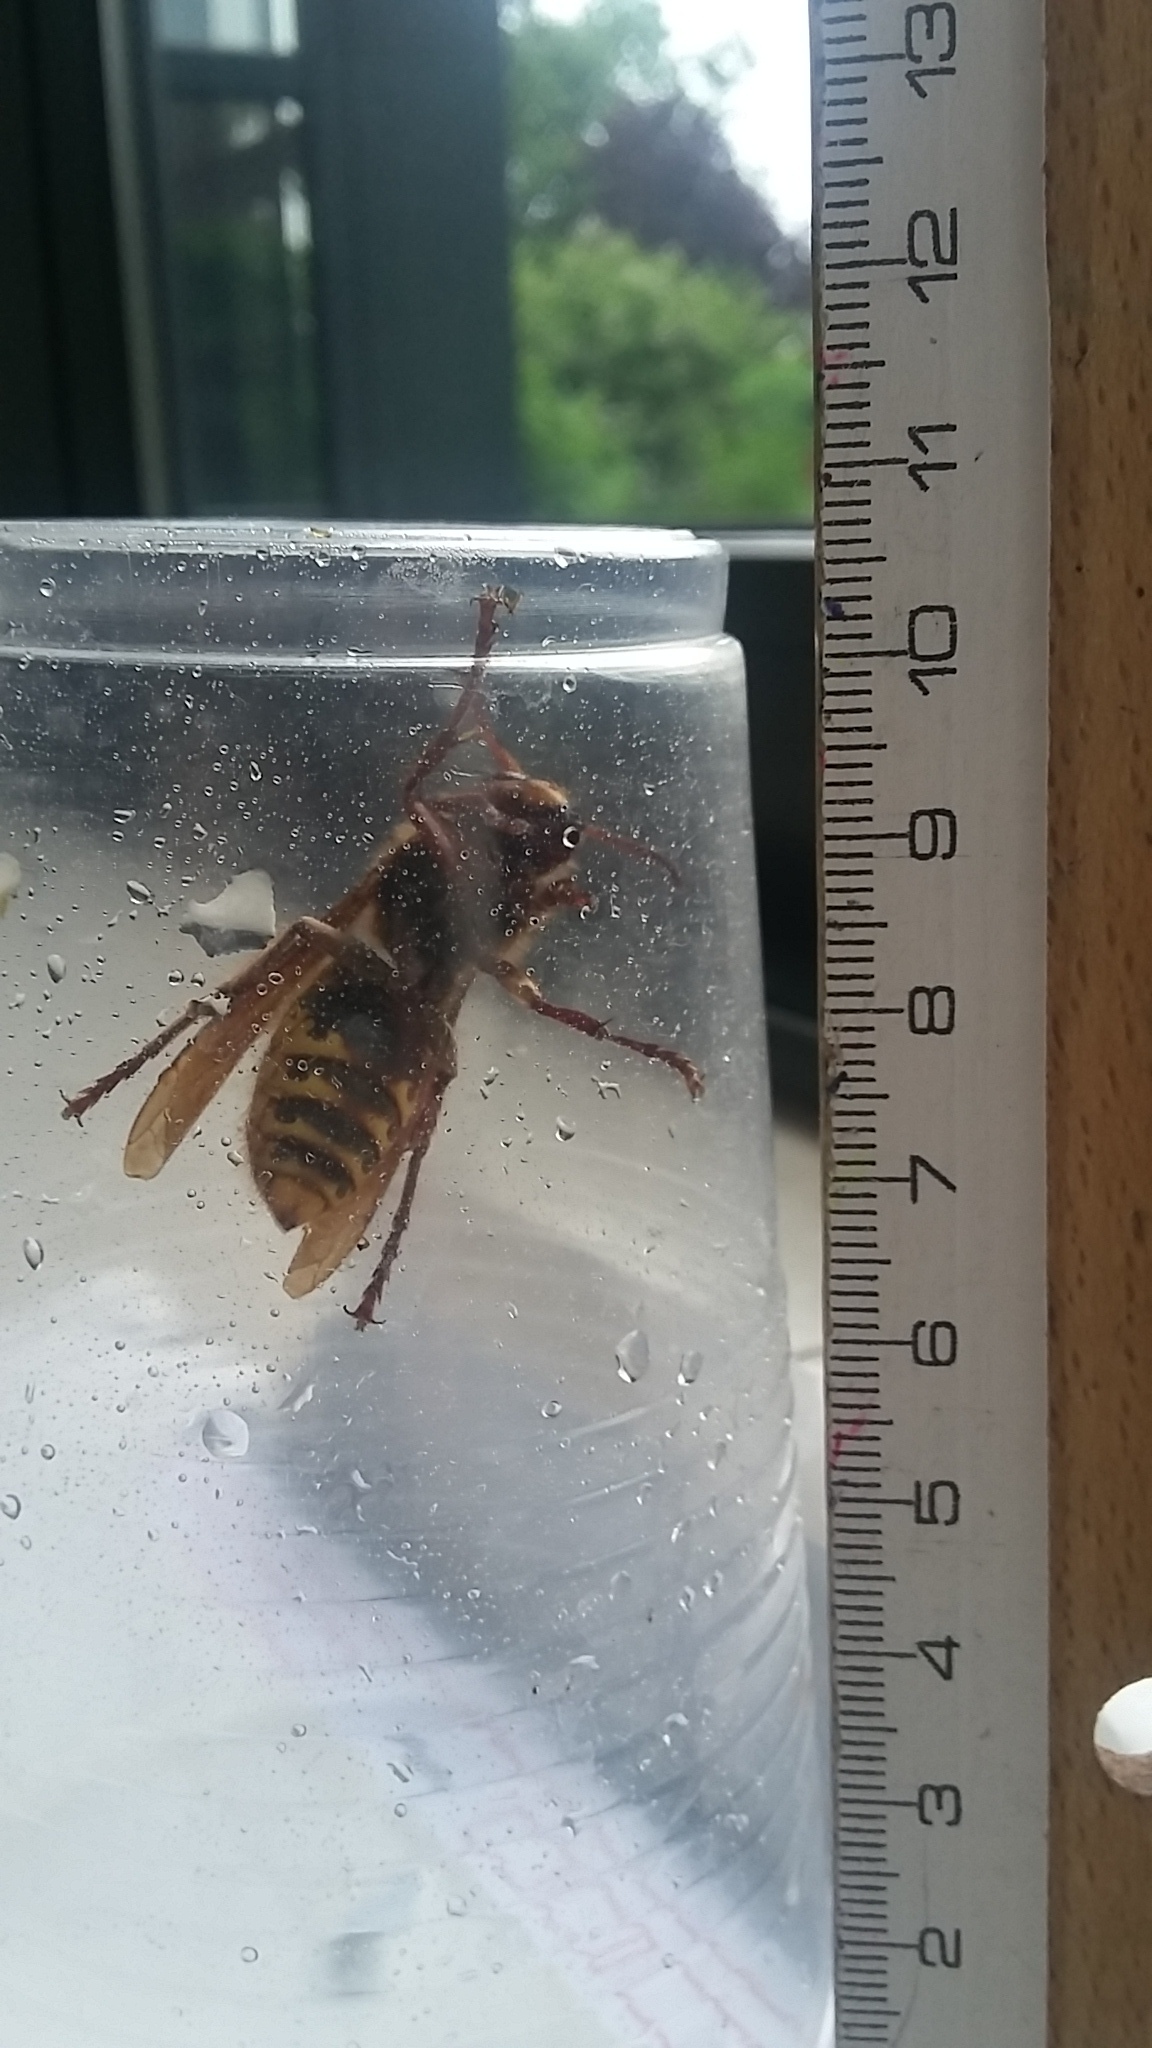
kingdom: Animalia
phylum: Arthropoda
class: Insecta
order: Hymenoptera
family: Vespidae
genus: Vespa
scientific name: Vespa crabro
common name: Hornet
